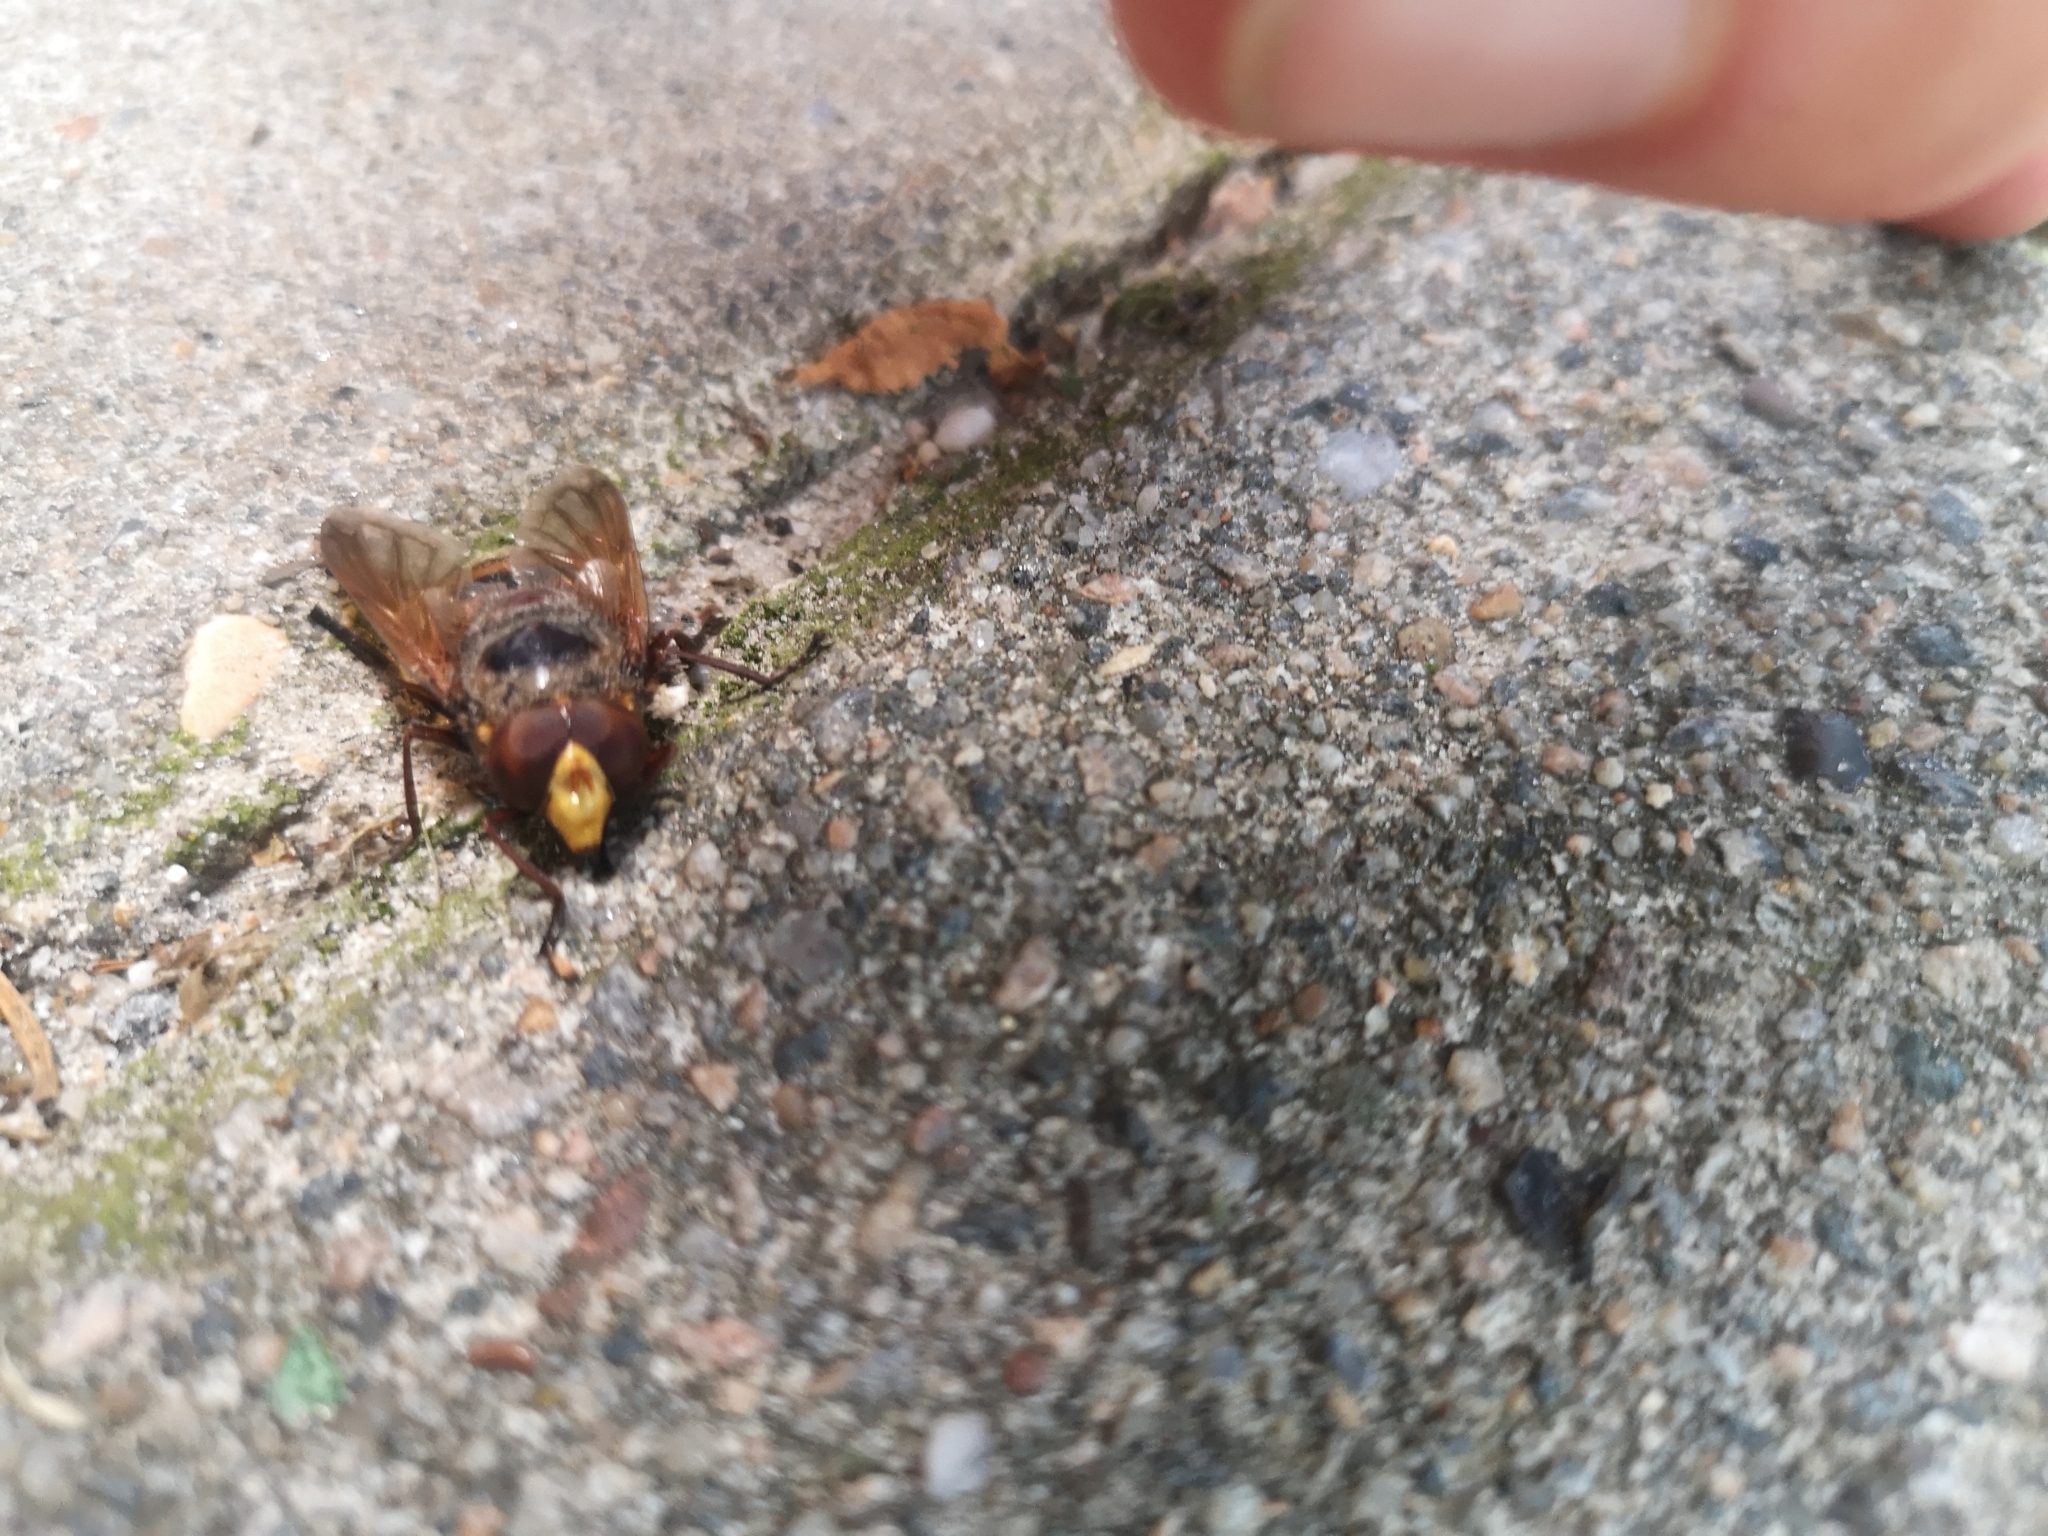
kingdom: Animalia
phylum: Arthropoda
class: Insecta
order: Diptera
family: Syrphidae
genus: Volucella
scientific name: Volucella zonaria
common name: Hornet hoverfly
